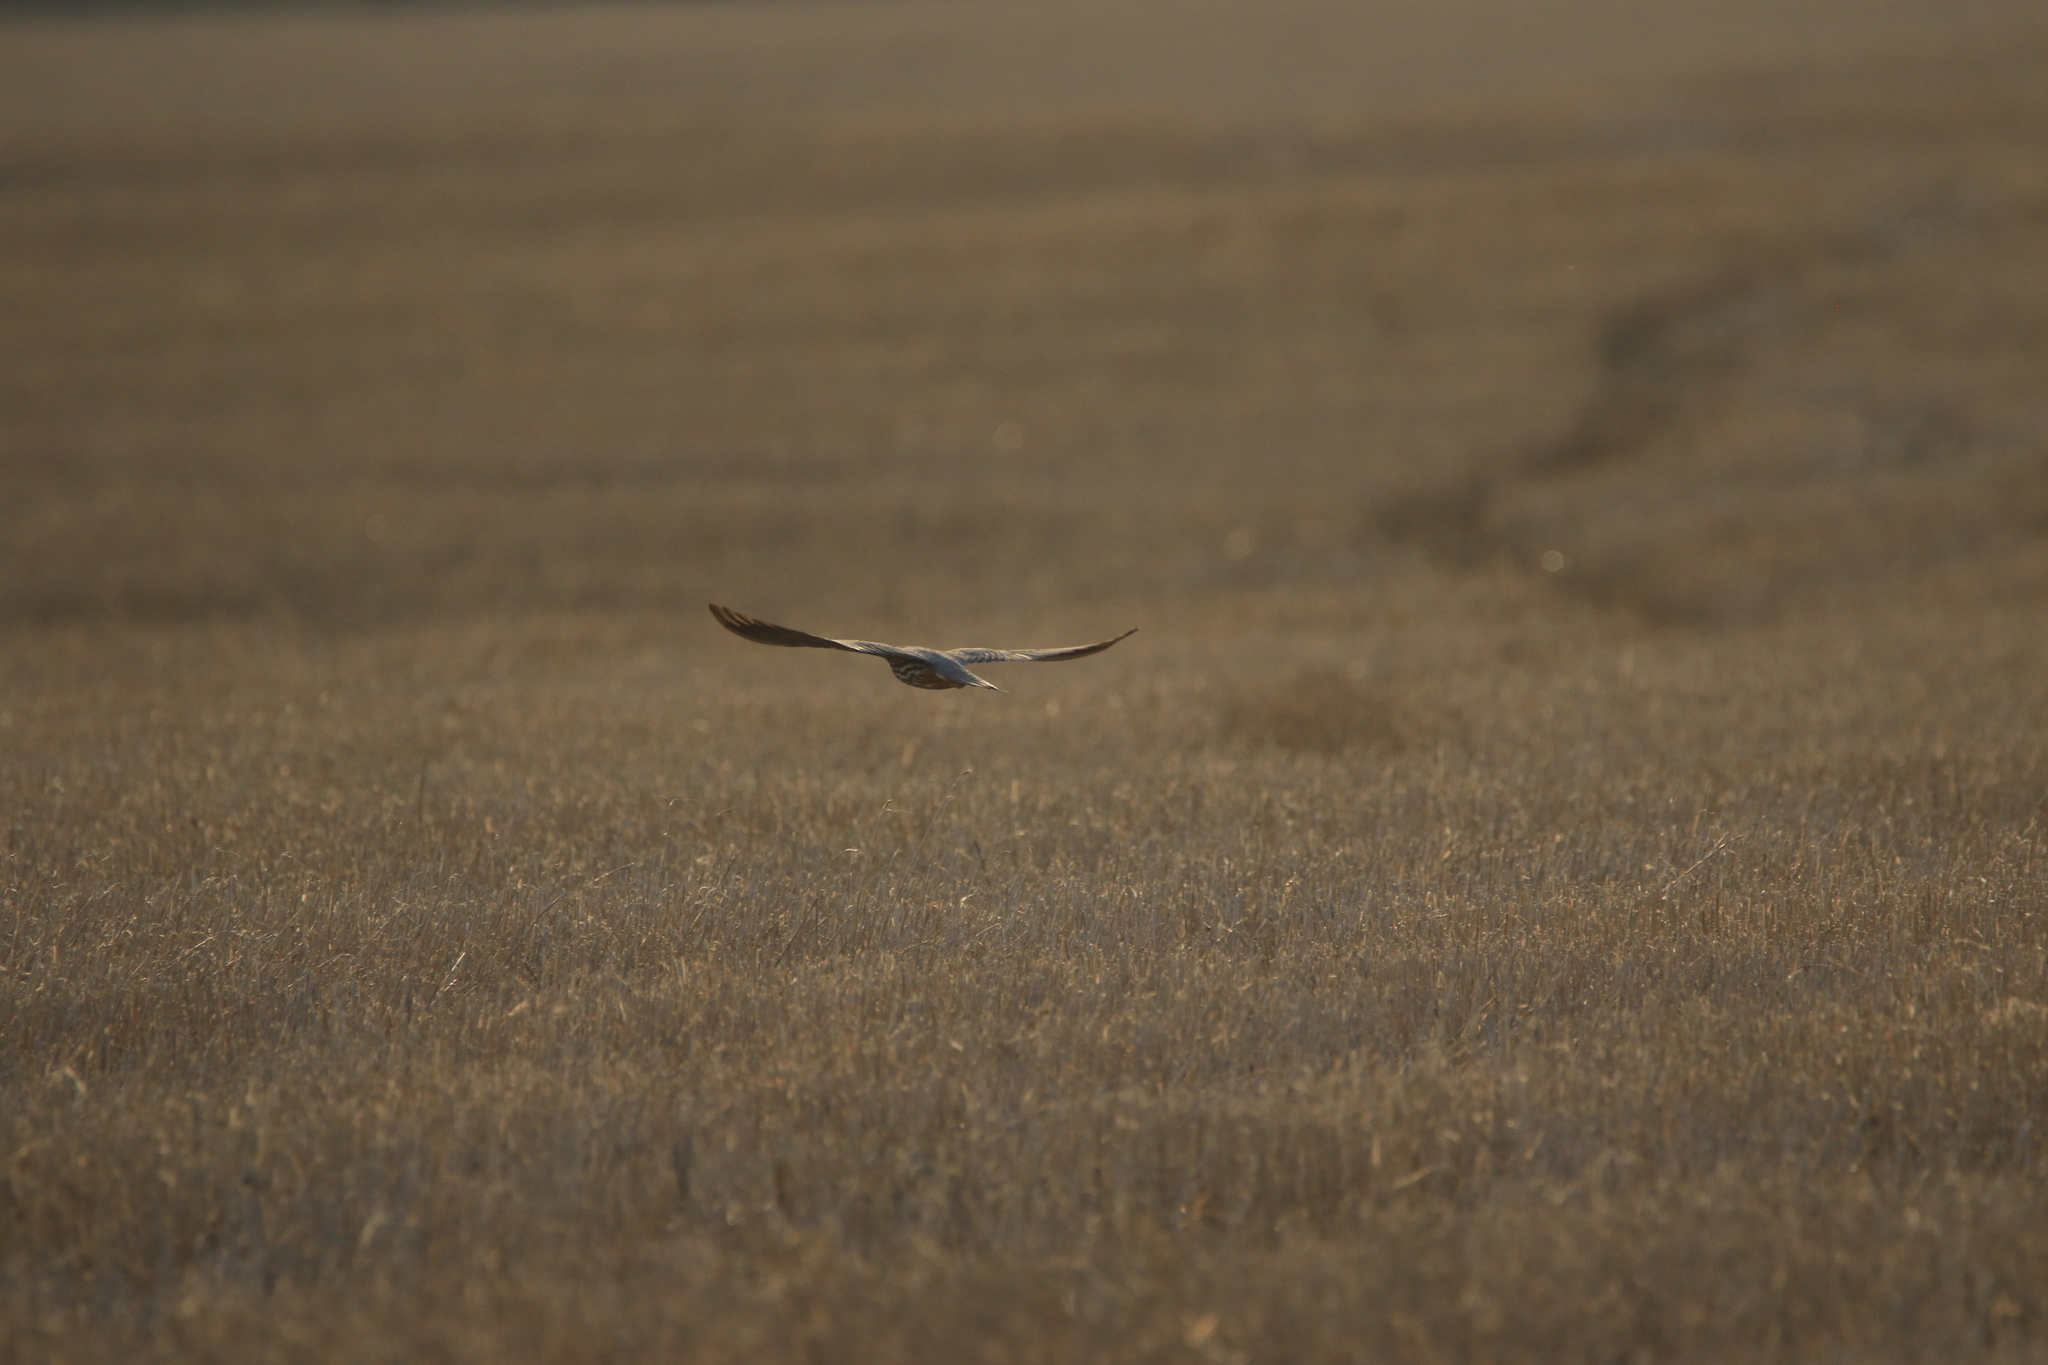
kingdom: Animalia
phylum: Chordata
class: Aves
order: Falconiformes
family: Falconidae
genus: Falco
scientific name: Falco subbuteo
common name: Eurasian hobby
